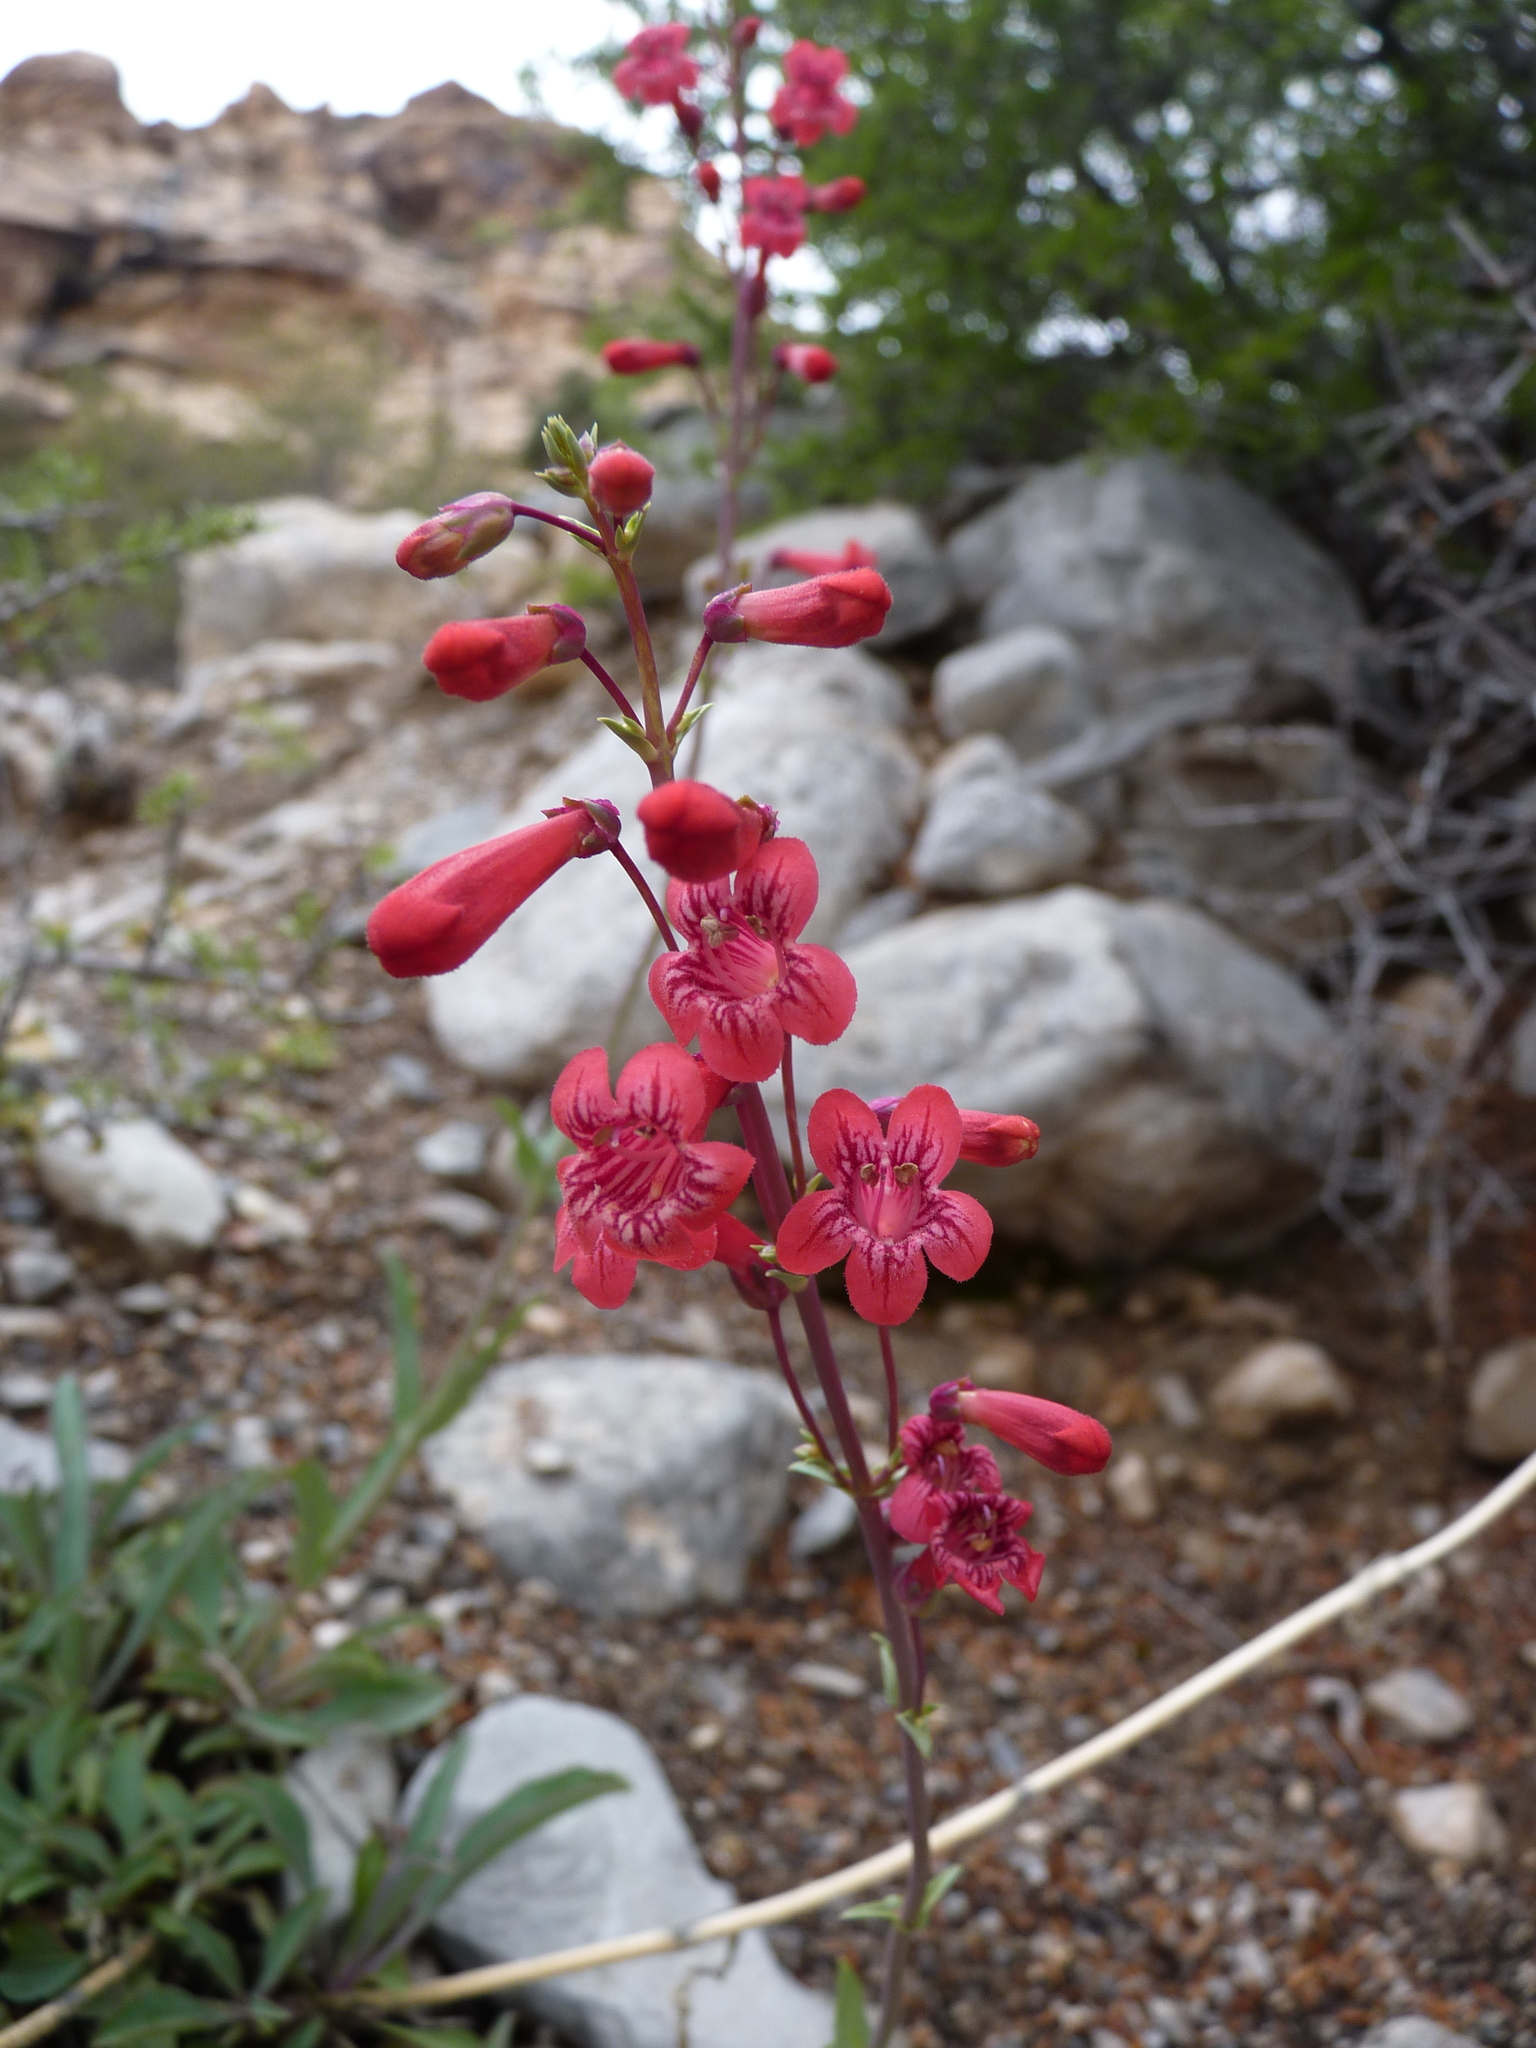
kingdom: Plantae
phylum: Tracheophyta
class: Magnoliopsida
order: Lamiales
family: Plantaginaceae
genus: Penstemon
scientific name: Penstemon utahensis
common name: Utah penstemon
